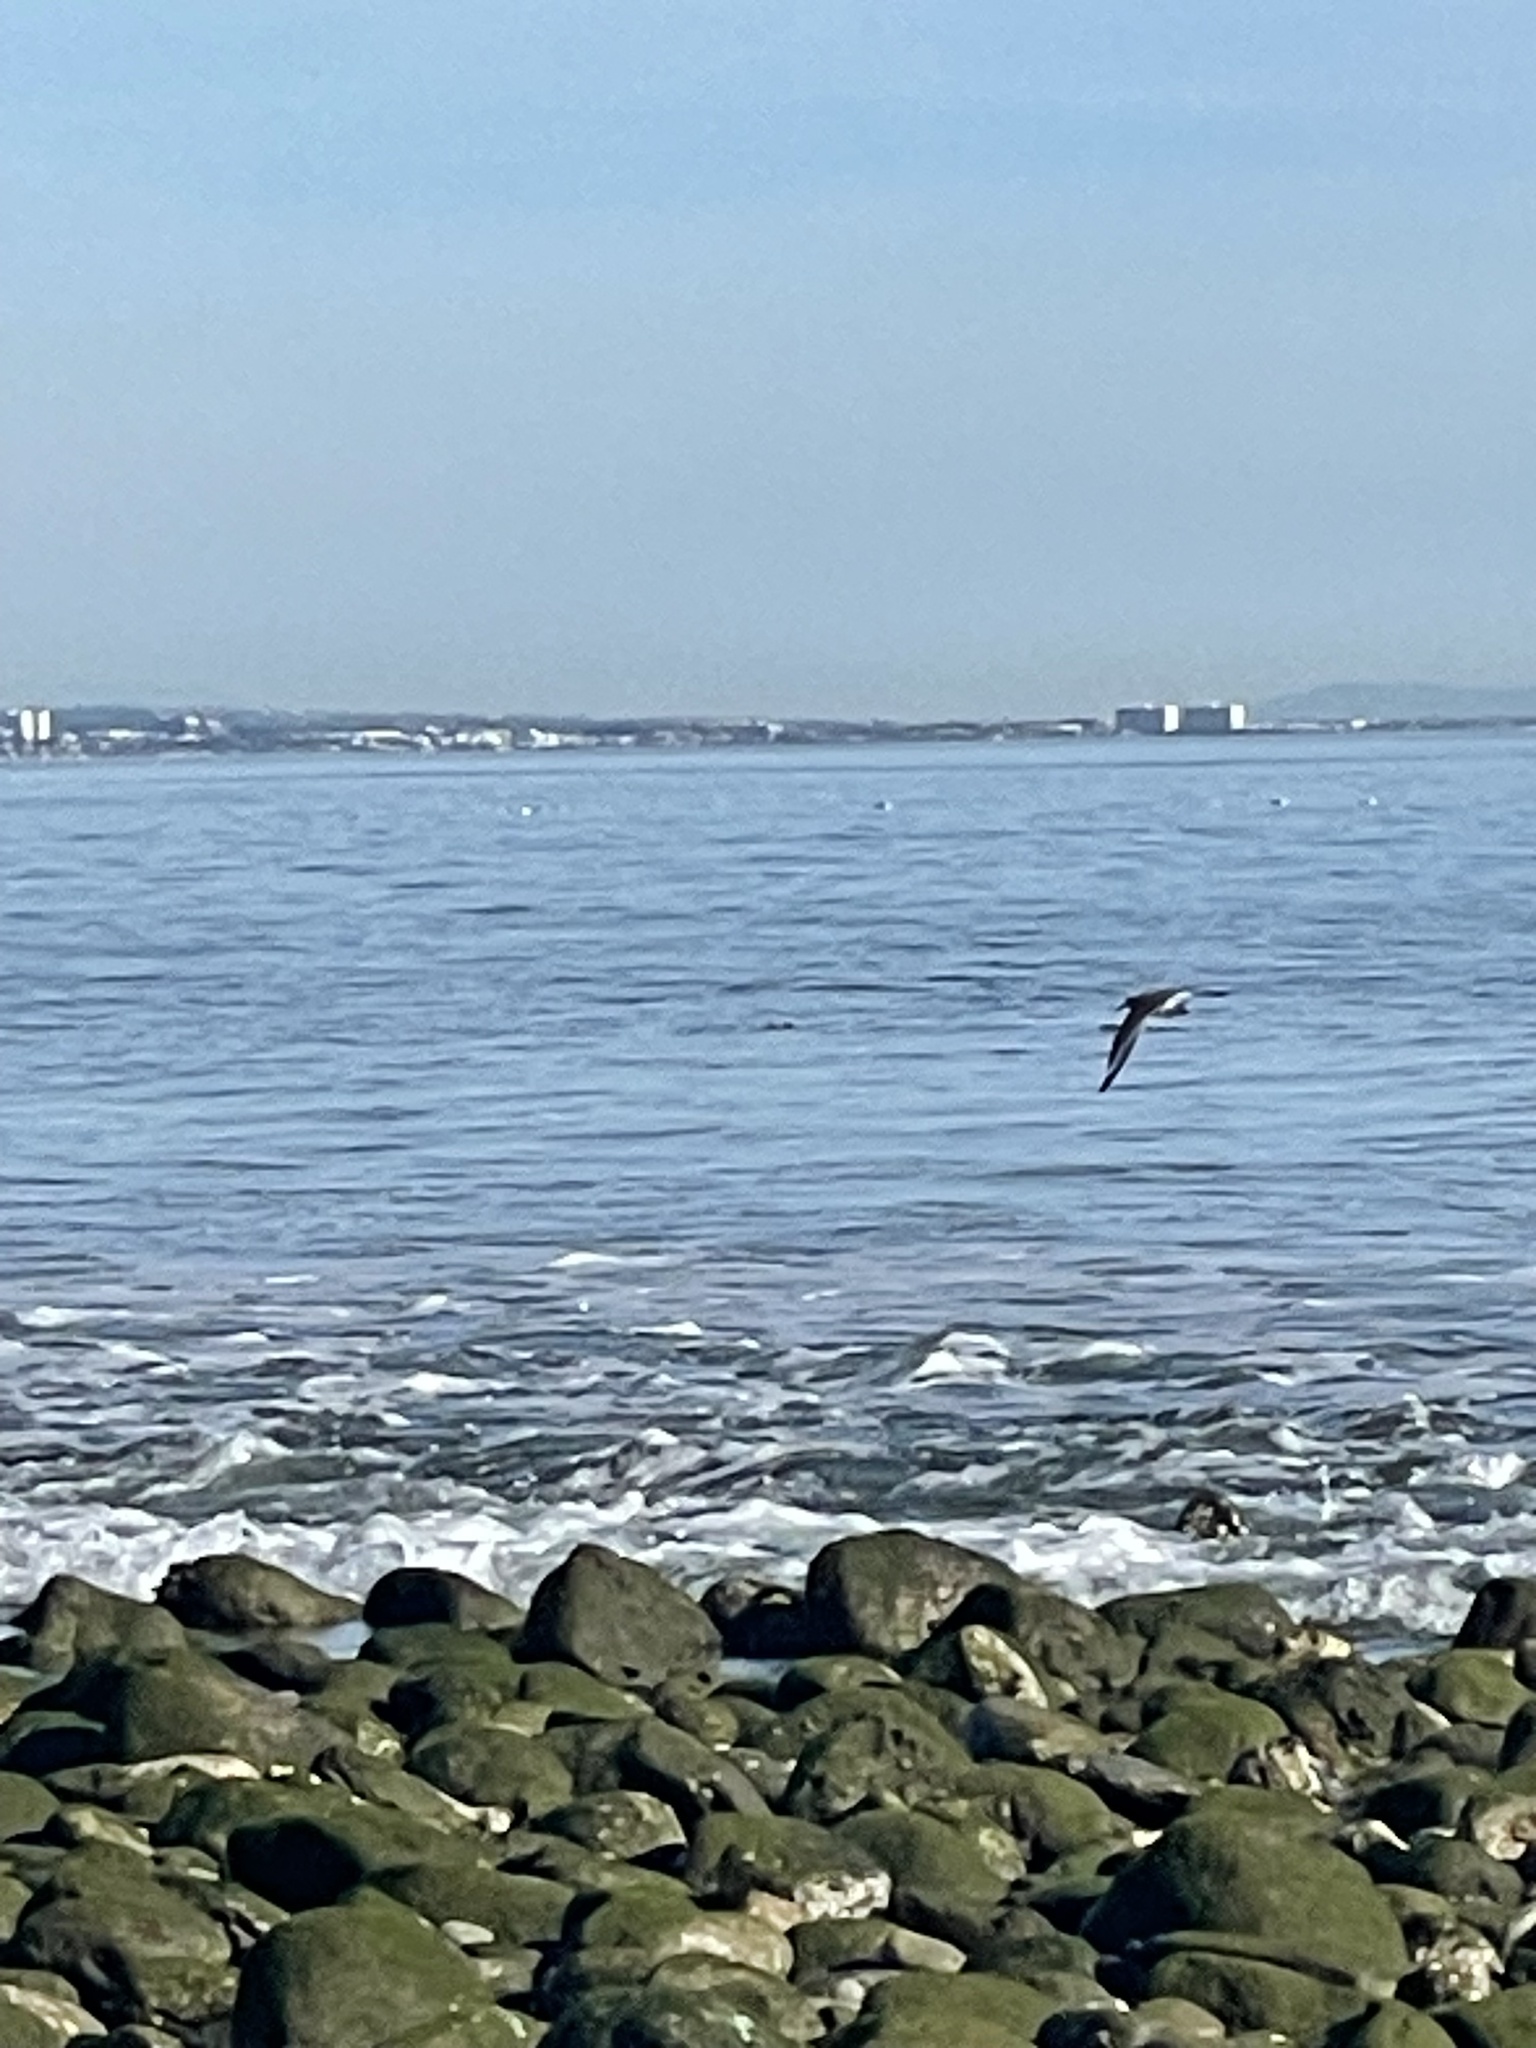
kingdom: Animalia
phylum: Chordata
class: Aves
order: Charadriiformes
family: Scolopacidae
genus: Tringa
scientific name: Tringa semipalmata
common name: Willet
